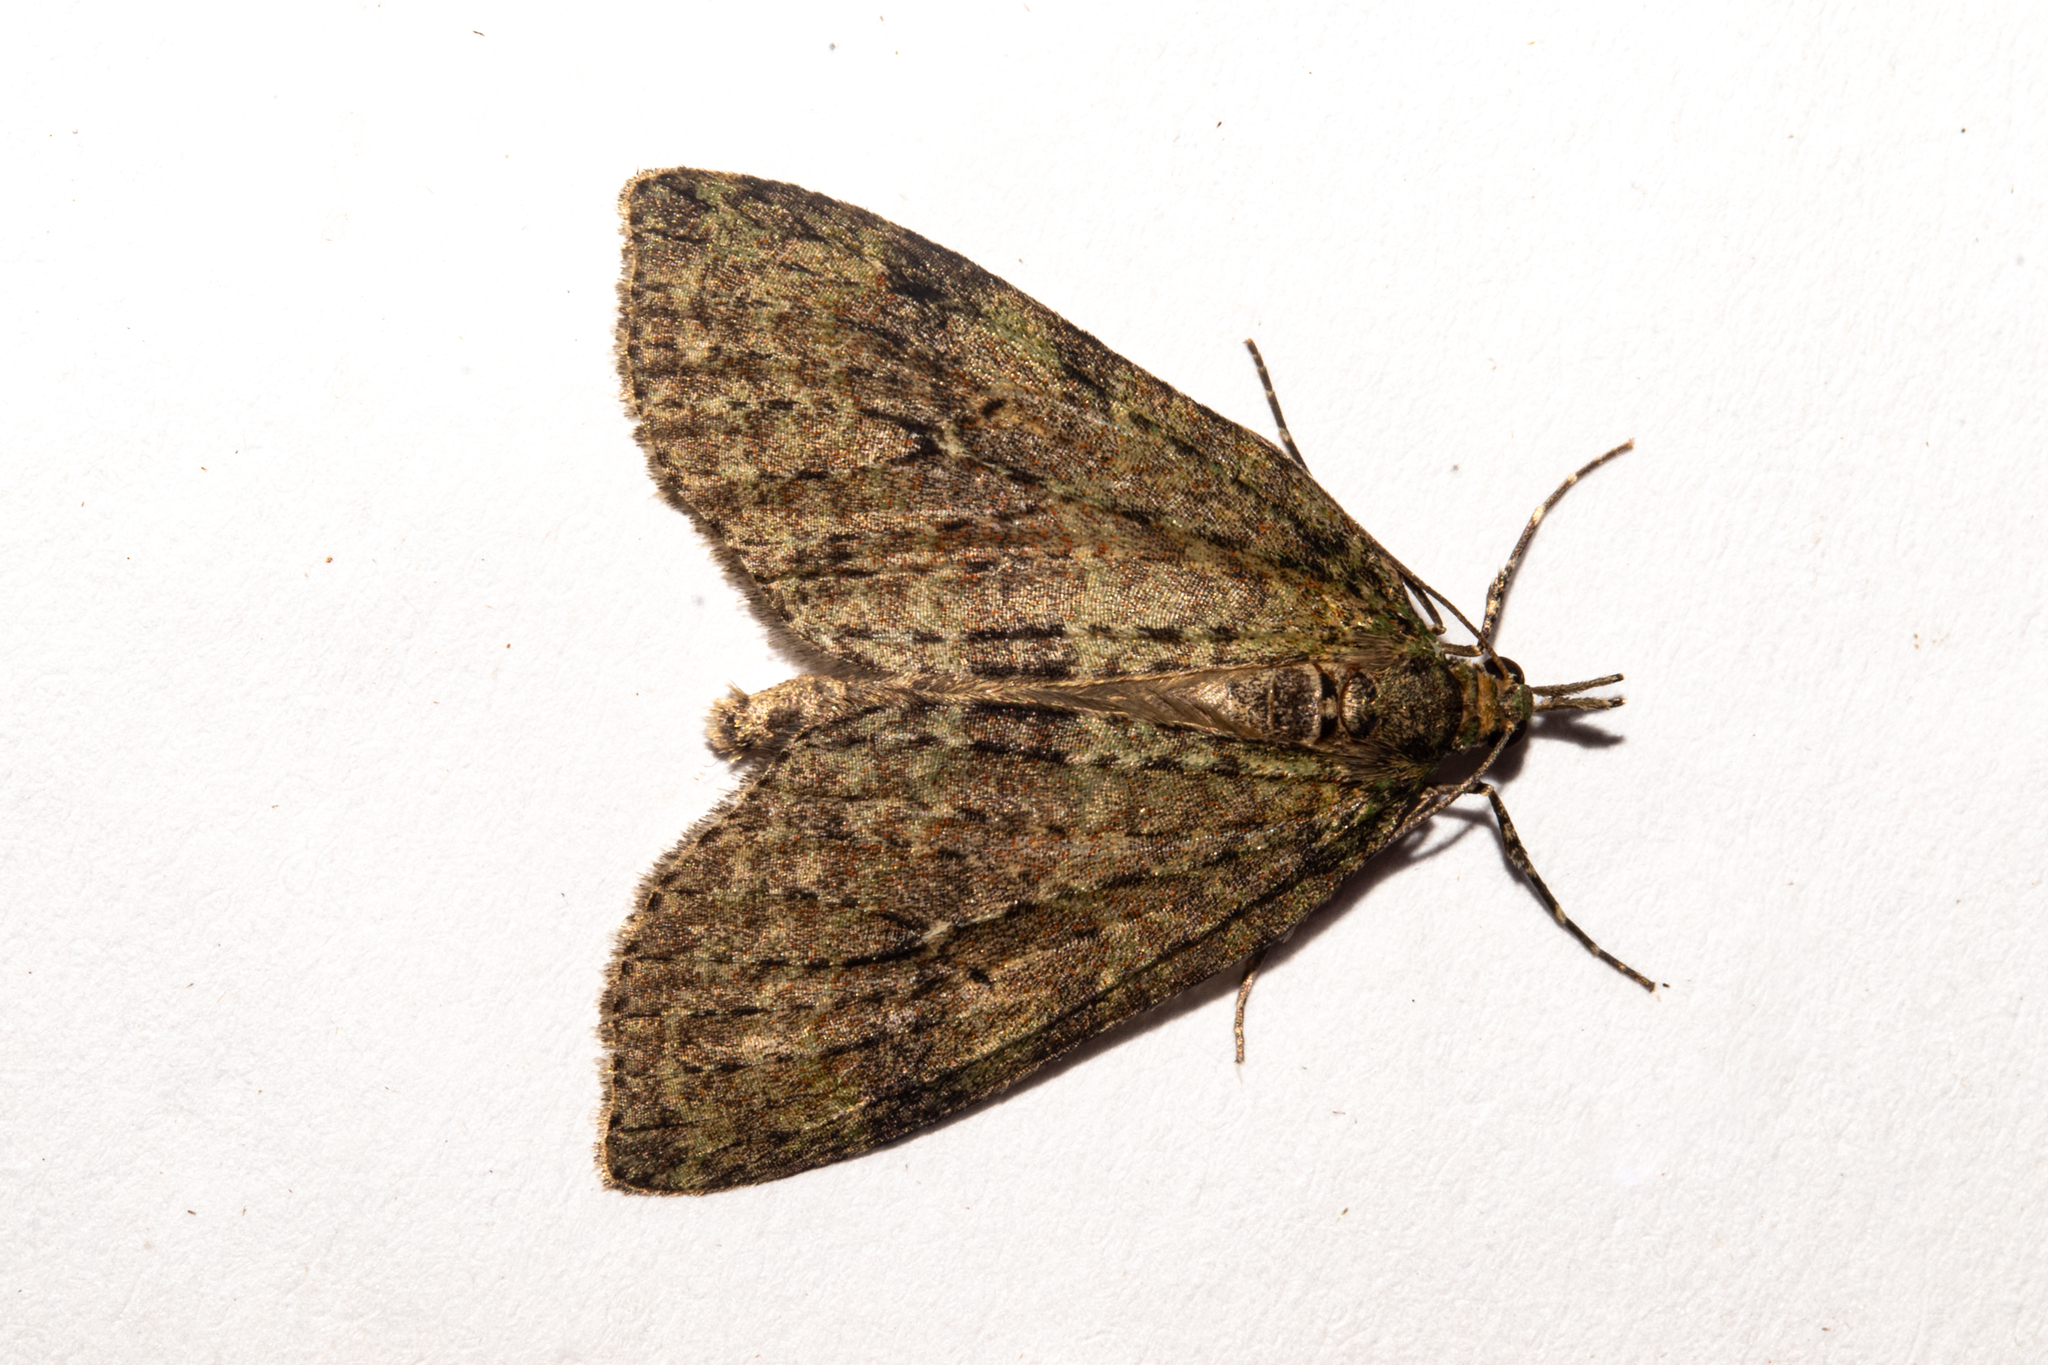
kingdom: Animalia
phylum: Arthropoda
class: Insecta
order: Lepidoptera
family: Geometridae
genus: Tatosoma
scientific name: Tatosoma transitaria
